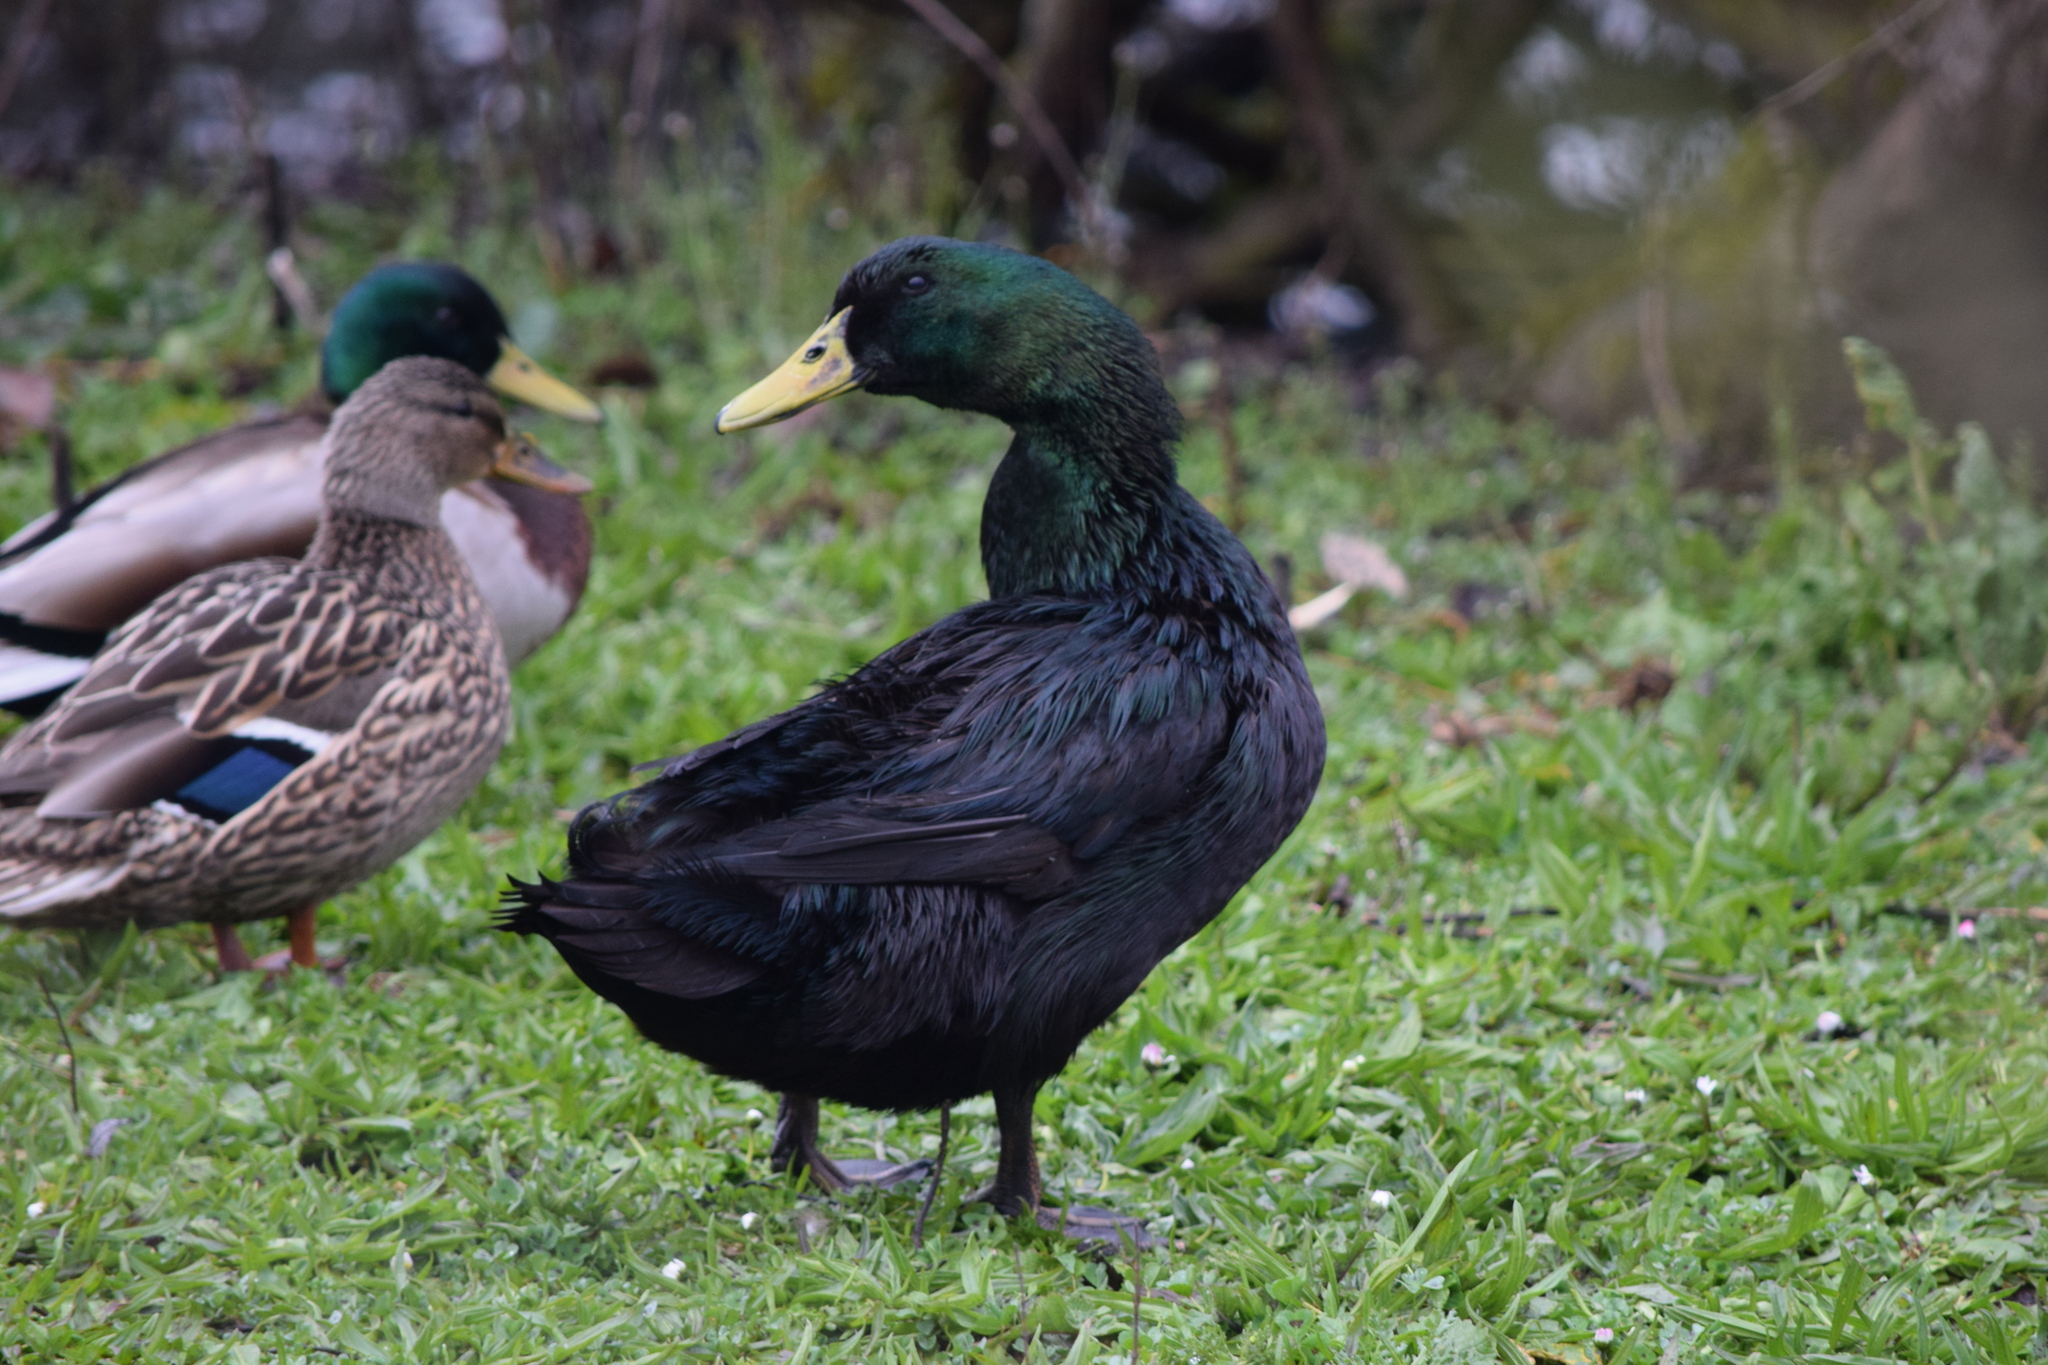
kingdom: Animalia
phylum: Chordata
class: Aves
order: Anseriformes
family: Anatidae
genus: Anas
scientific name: Anas platyrhynchos
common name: Mallard
